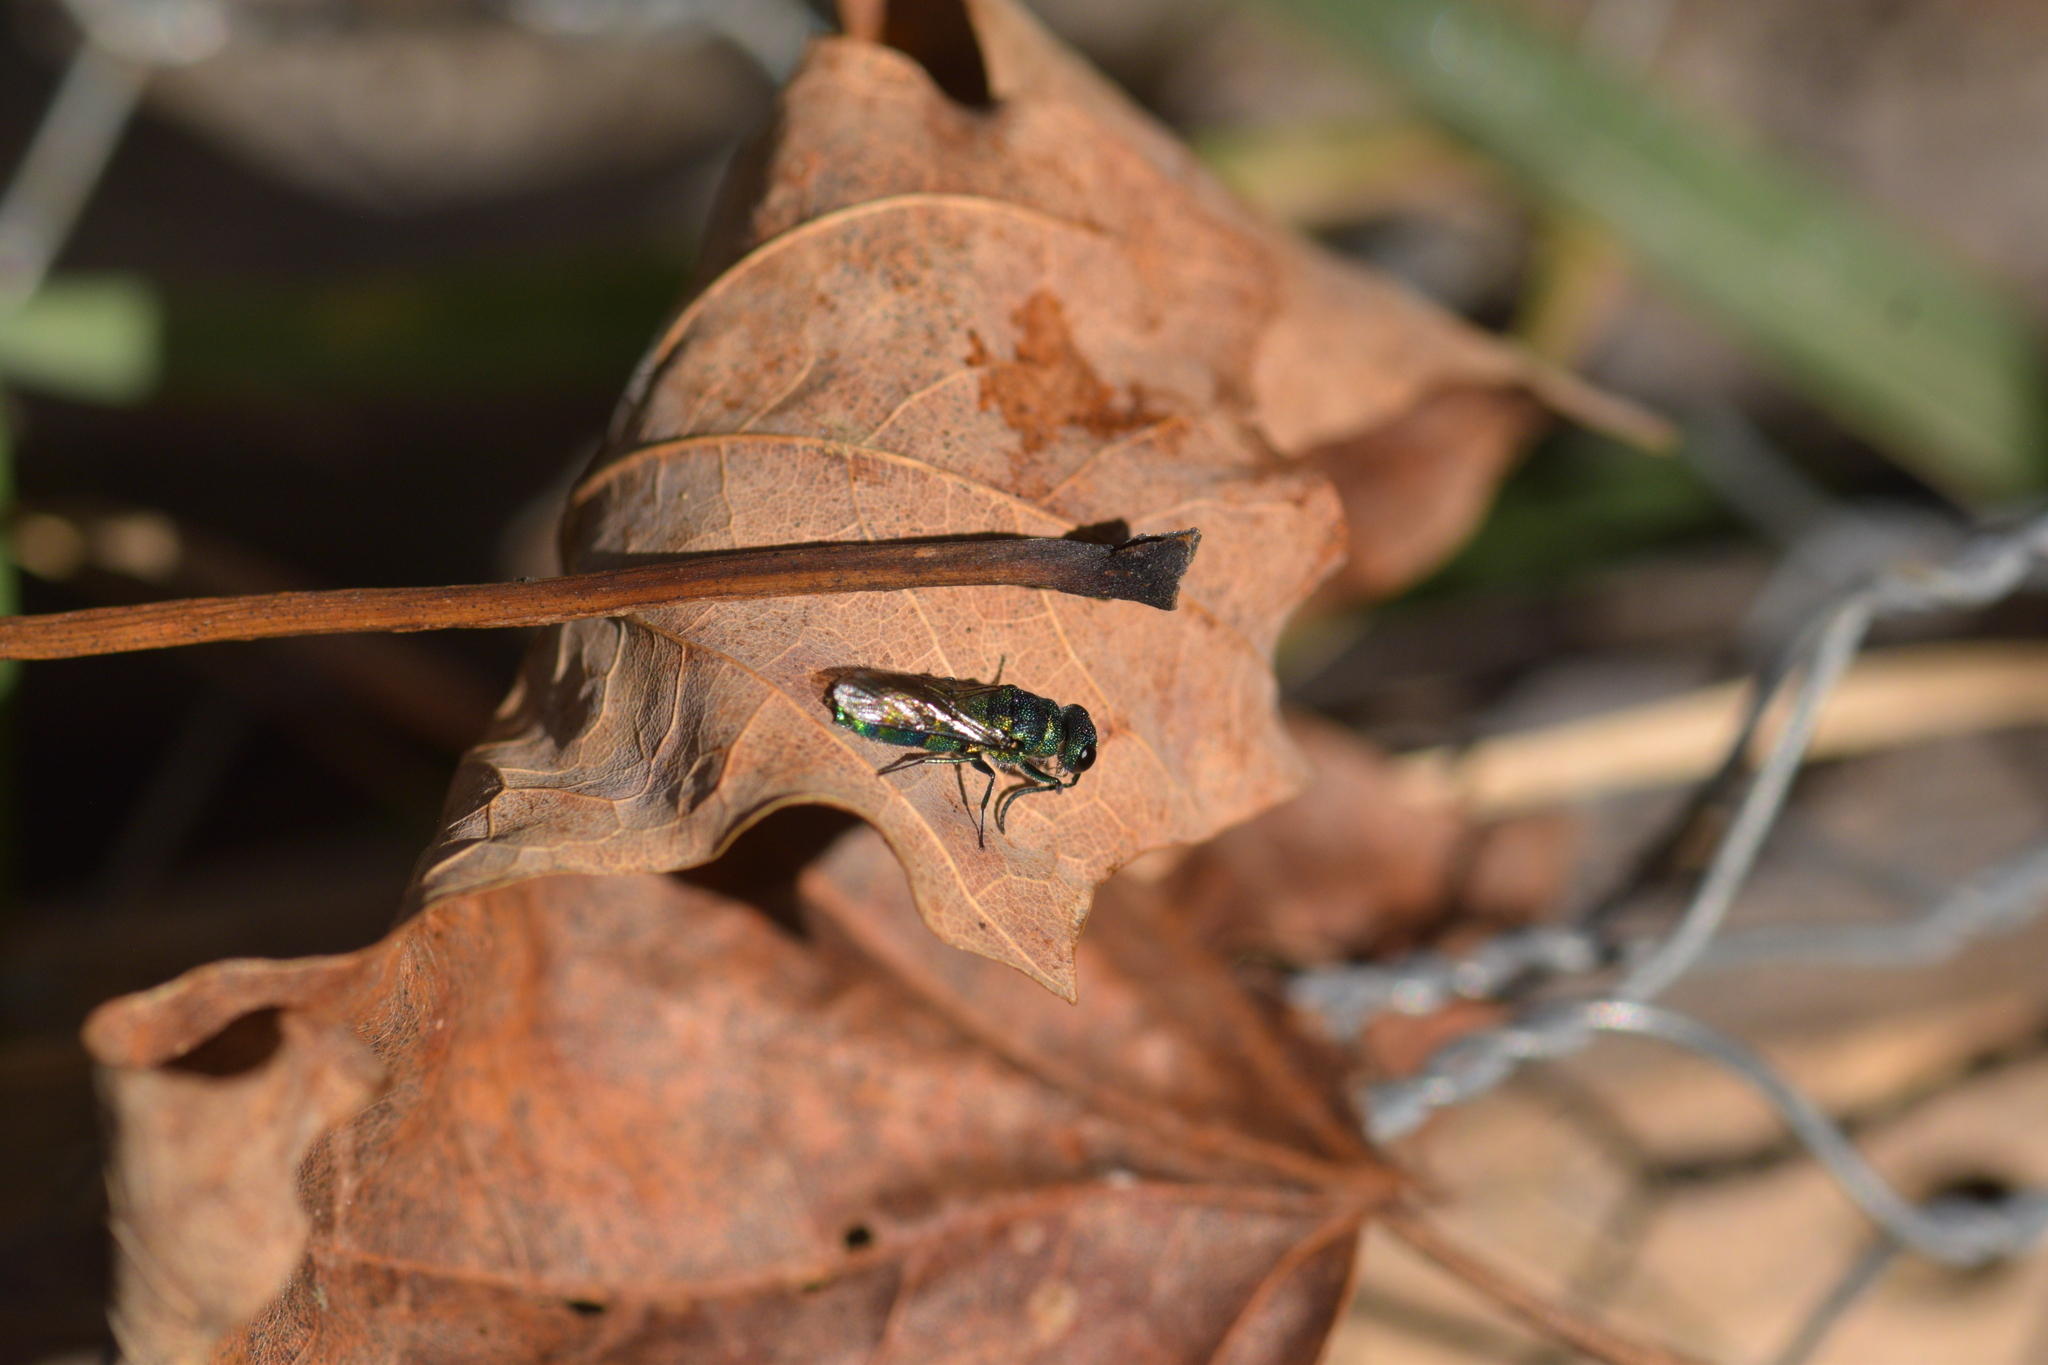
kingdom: Animalia
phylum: Arthropoda
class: Insecta
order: Hymenoptera
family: Chrysididae
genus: Chrysis
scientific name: Chrysis
